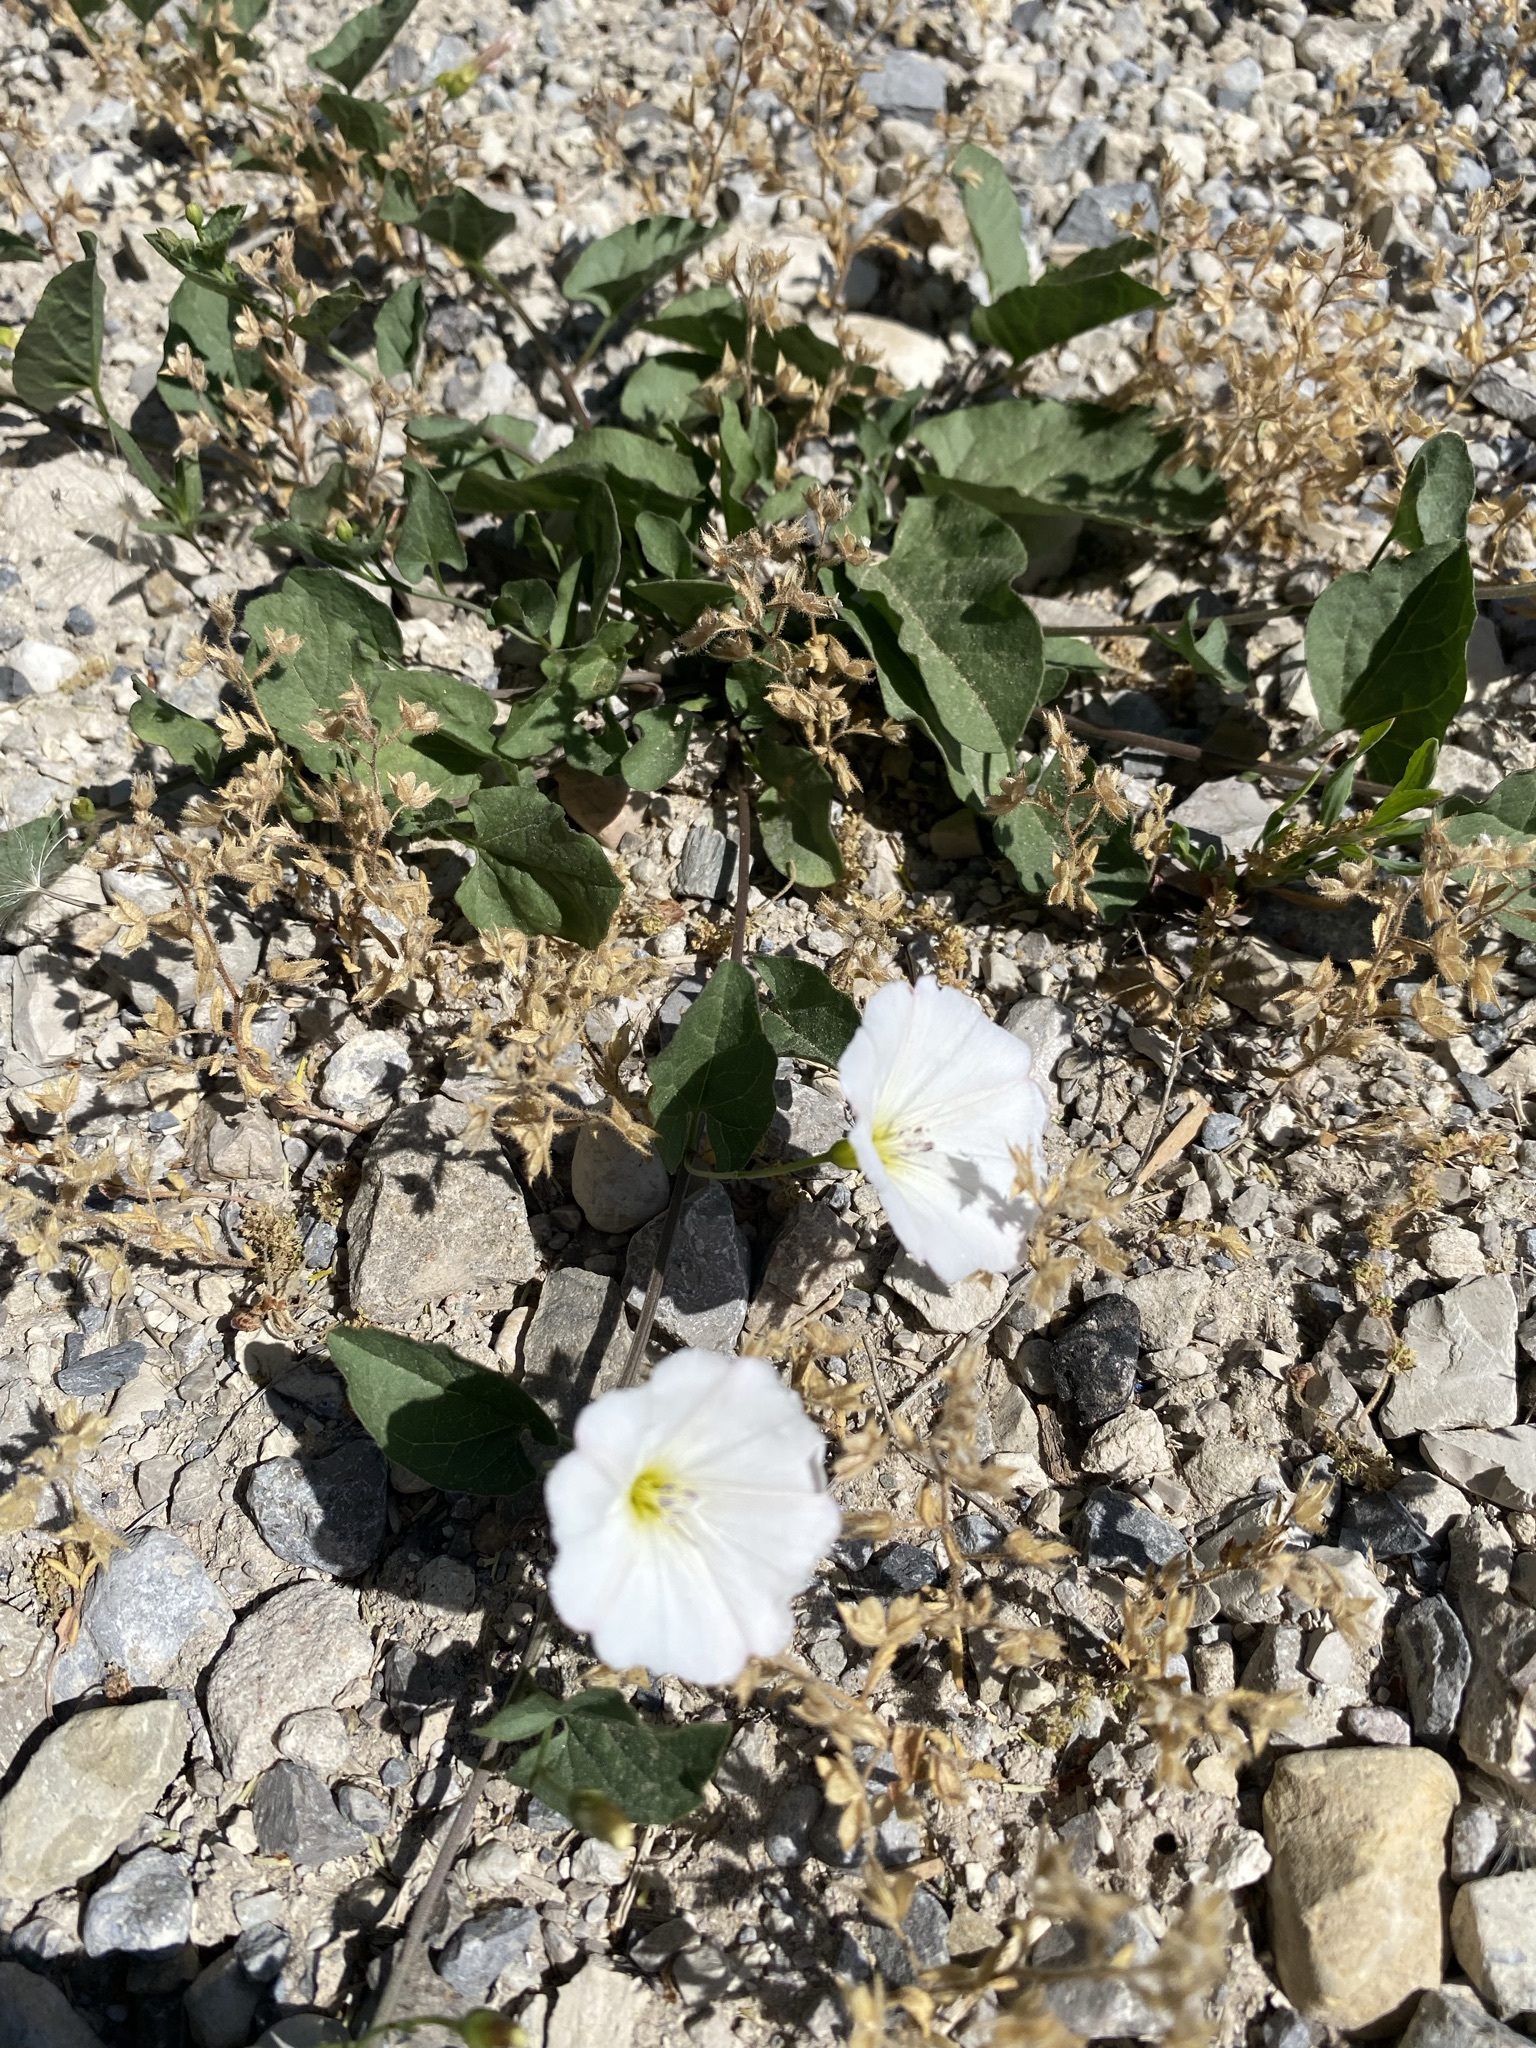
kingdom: Plantae
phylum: Tracheophyta
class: Magnoliopsida
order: Solanales
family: Convolvulaceae
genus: Convolvulus
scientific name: Convolvulus arvensis
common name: Field bindweed
